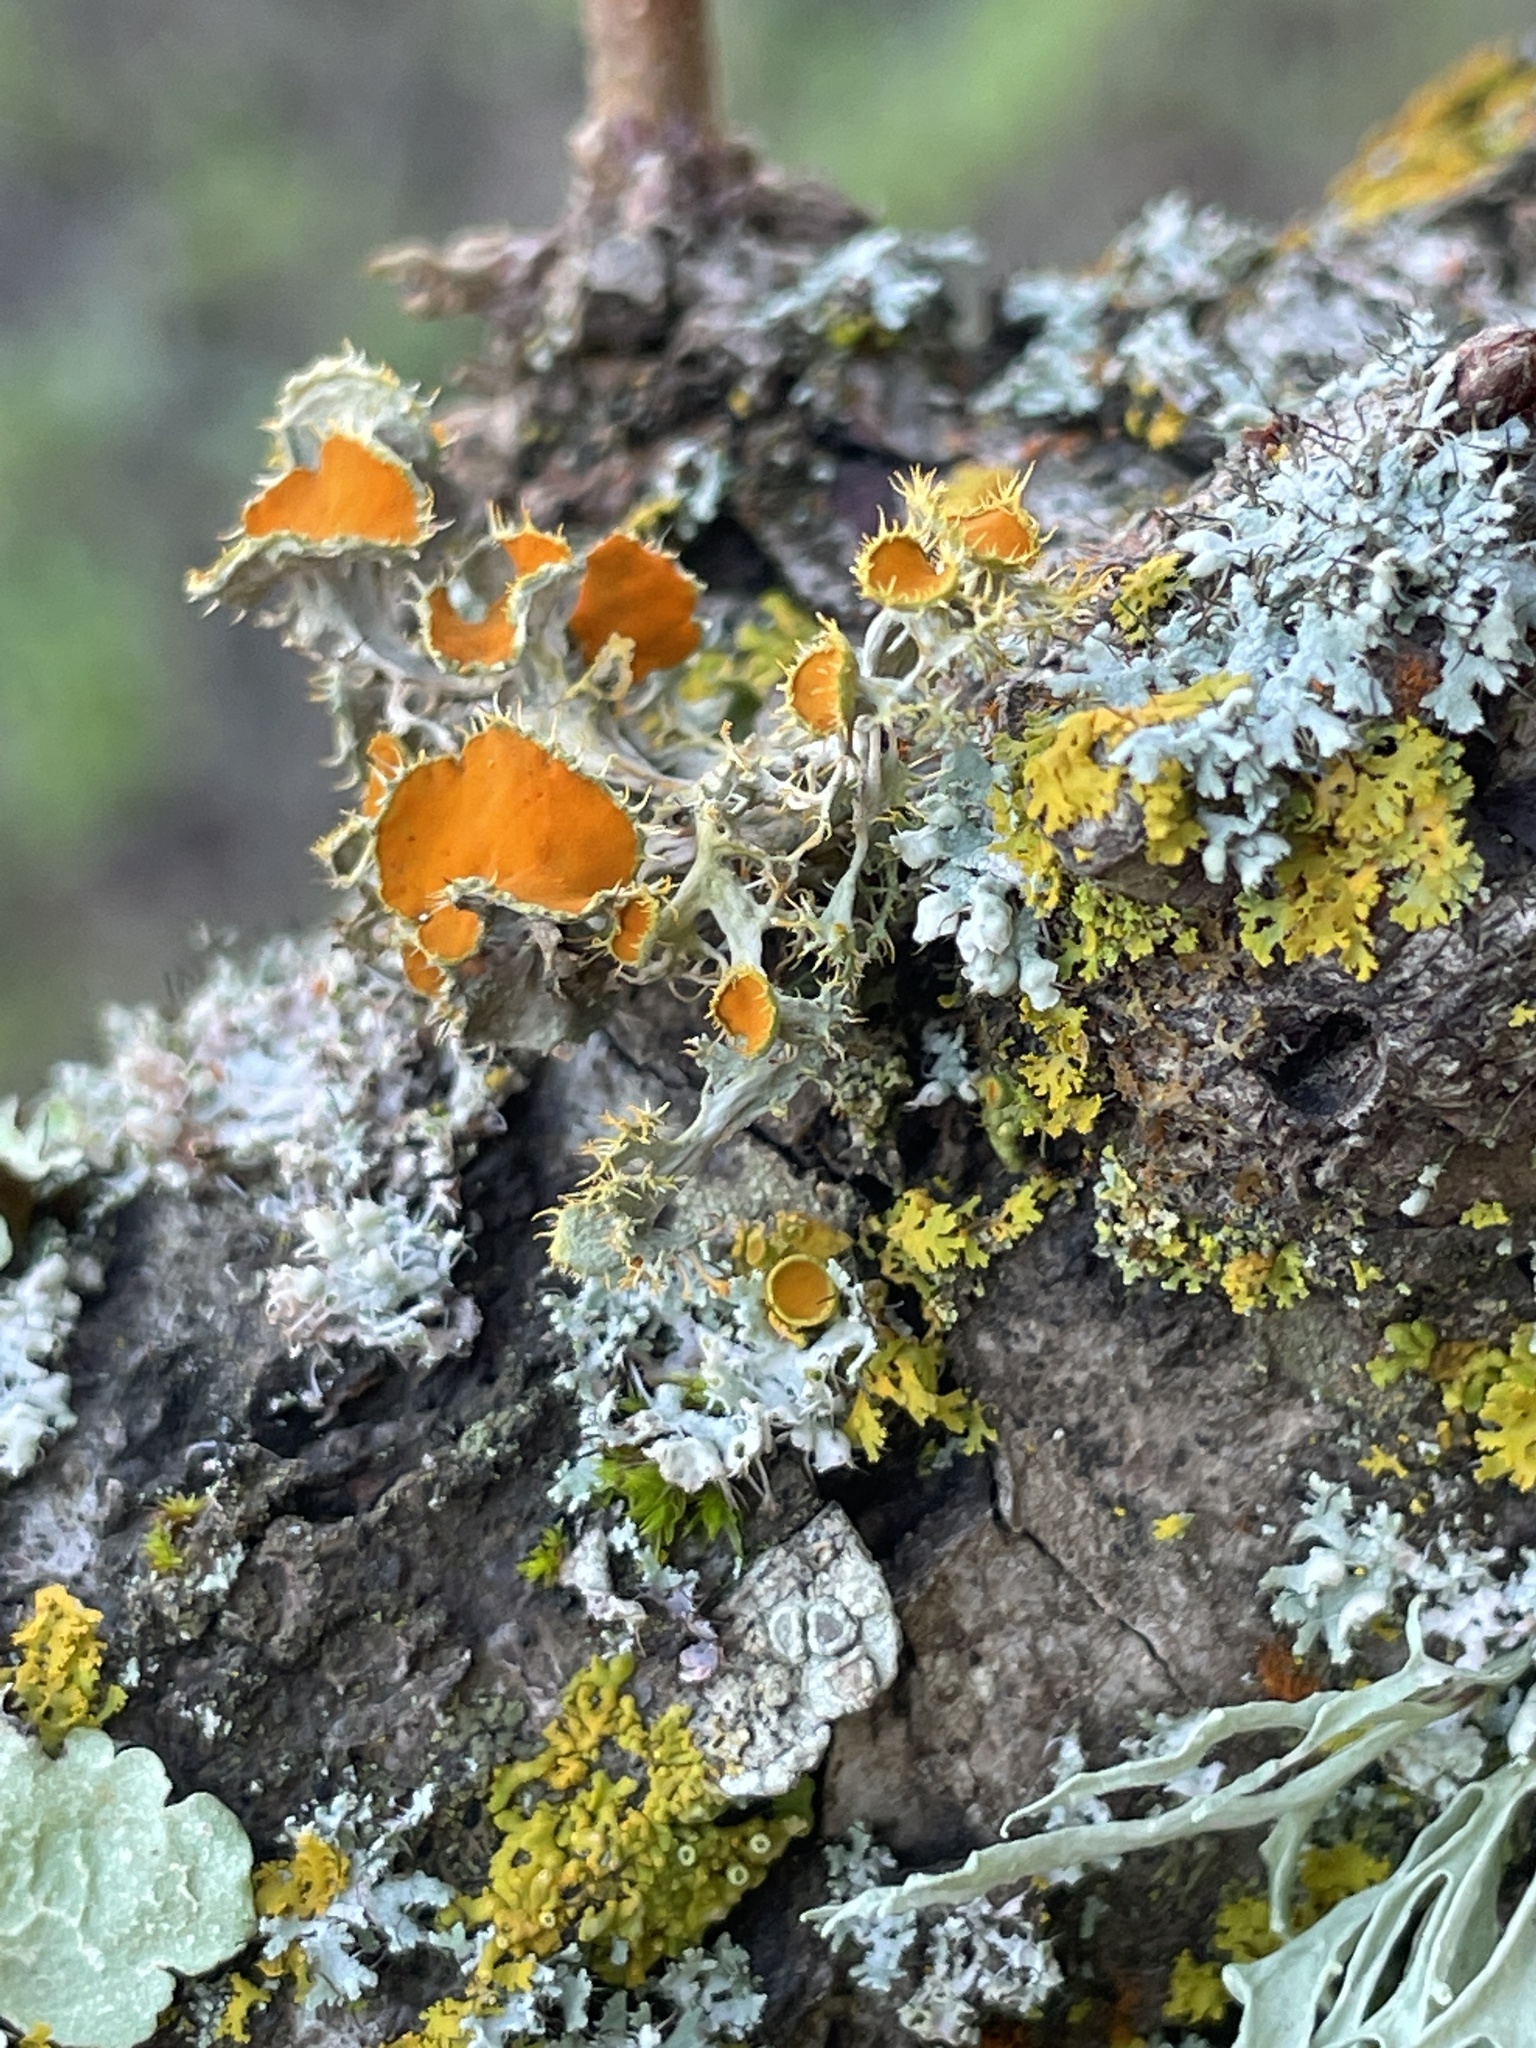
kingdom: Fungi
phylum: Ascomycota
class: Lecanoromycetes
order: Teloschistales
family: Teloschistaceae
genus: Niorma
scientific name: Niorma chrysophthalma
